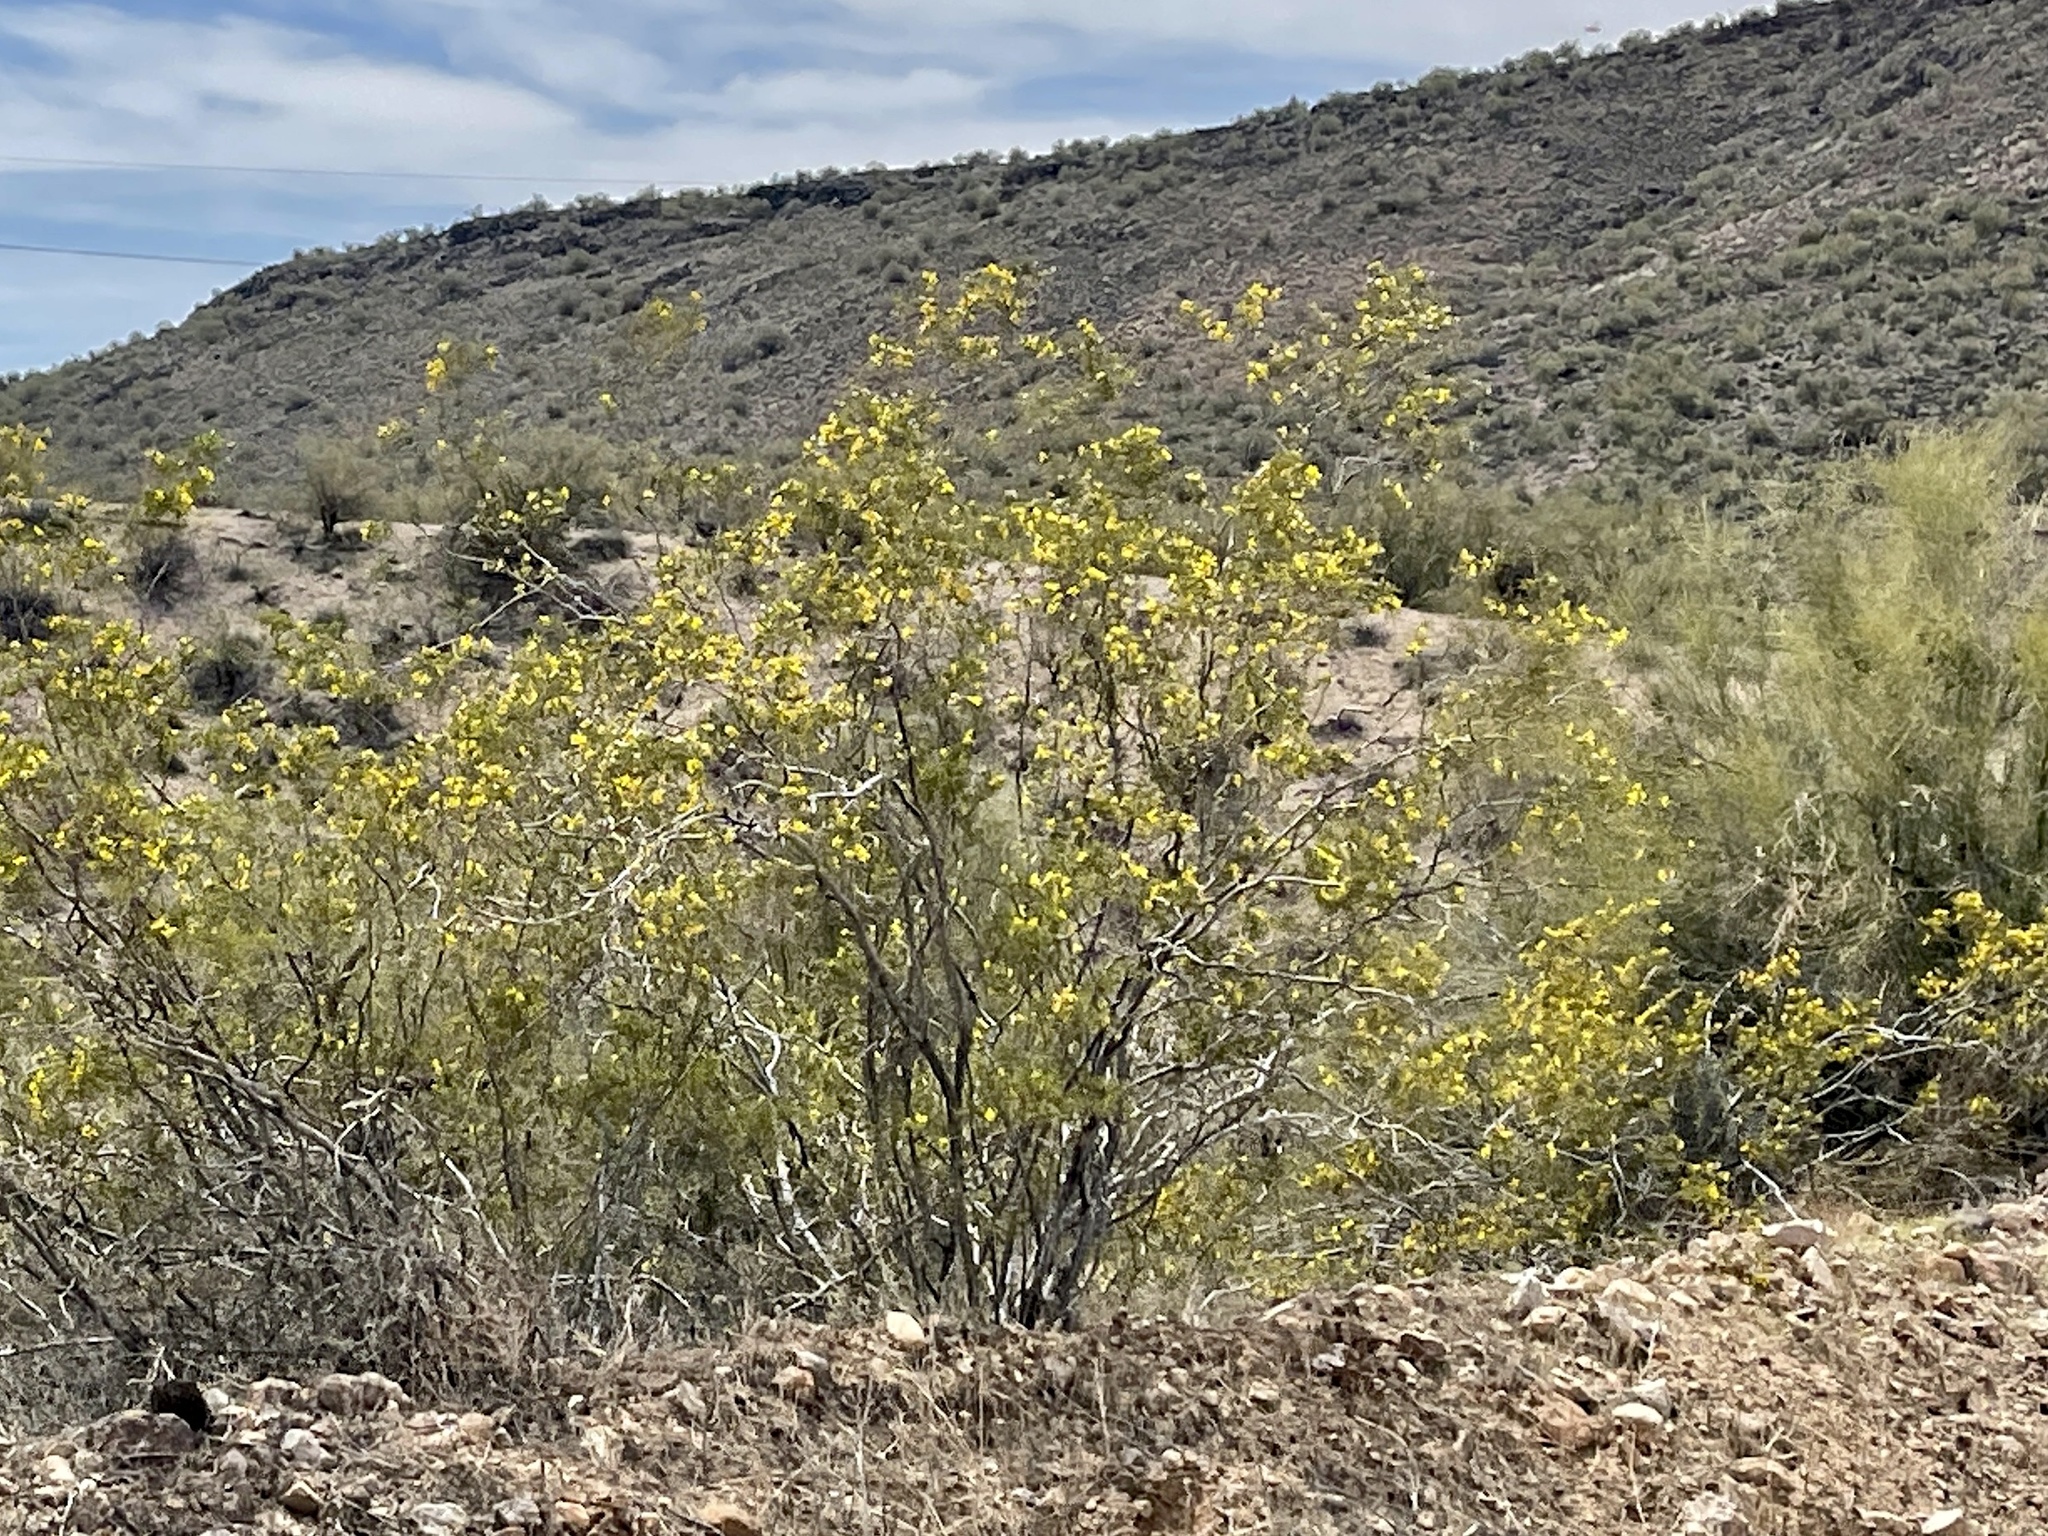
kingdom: Plantae
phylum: Tracheophyta
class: Magnoliopsida
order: Zygophyllales
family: Zygophyllaceae
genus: Larrea
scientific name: Larrea tridentata
